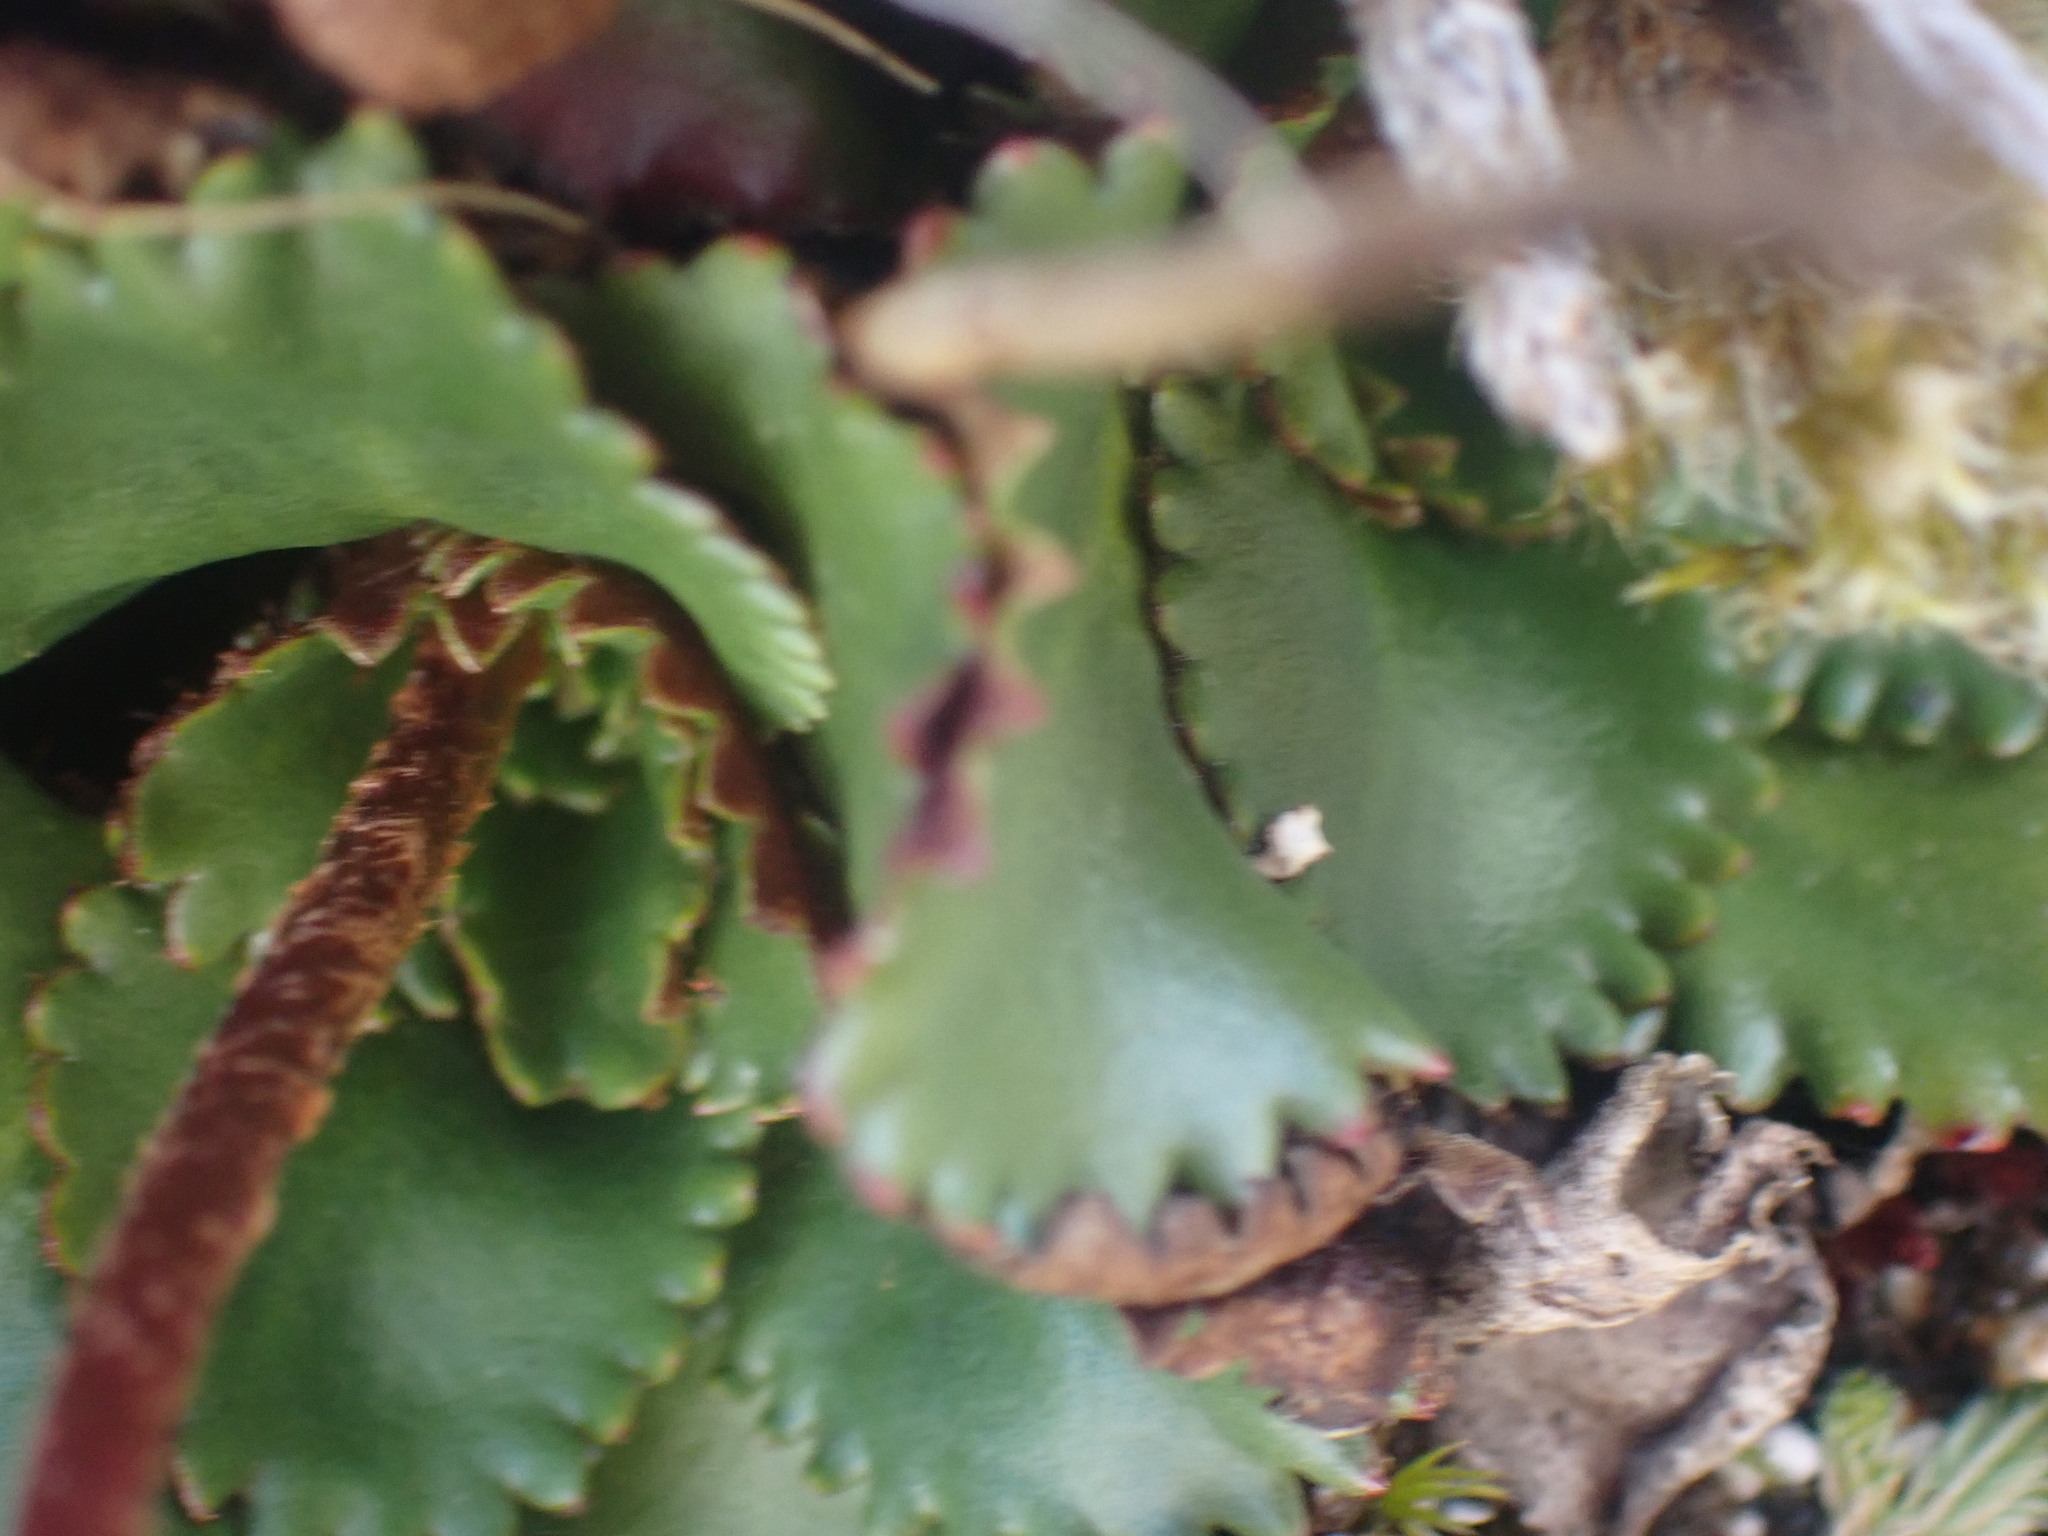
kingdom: Plantae
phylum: Tracheophyta
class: Magnoliopsida
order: Saxifragales
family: Saxifragaceae
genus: Micranthes
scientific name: Micranthes rufidula
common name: Rustyhair saxifrage
